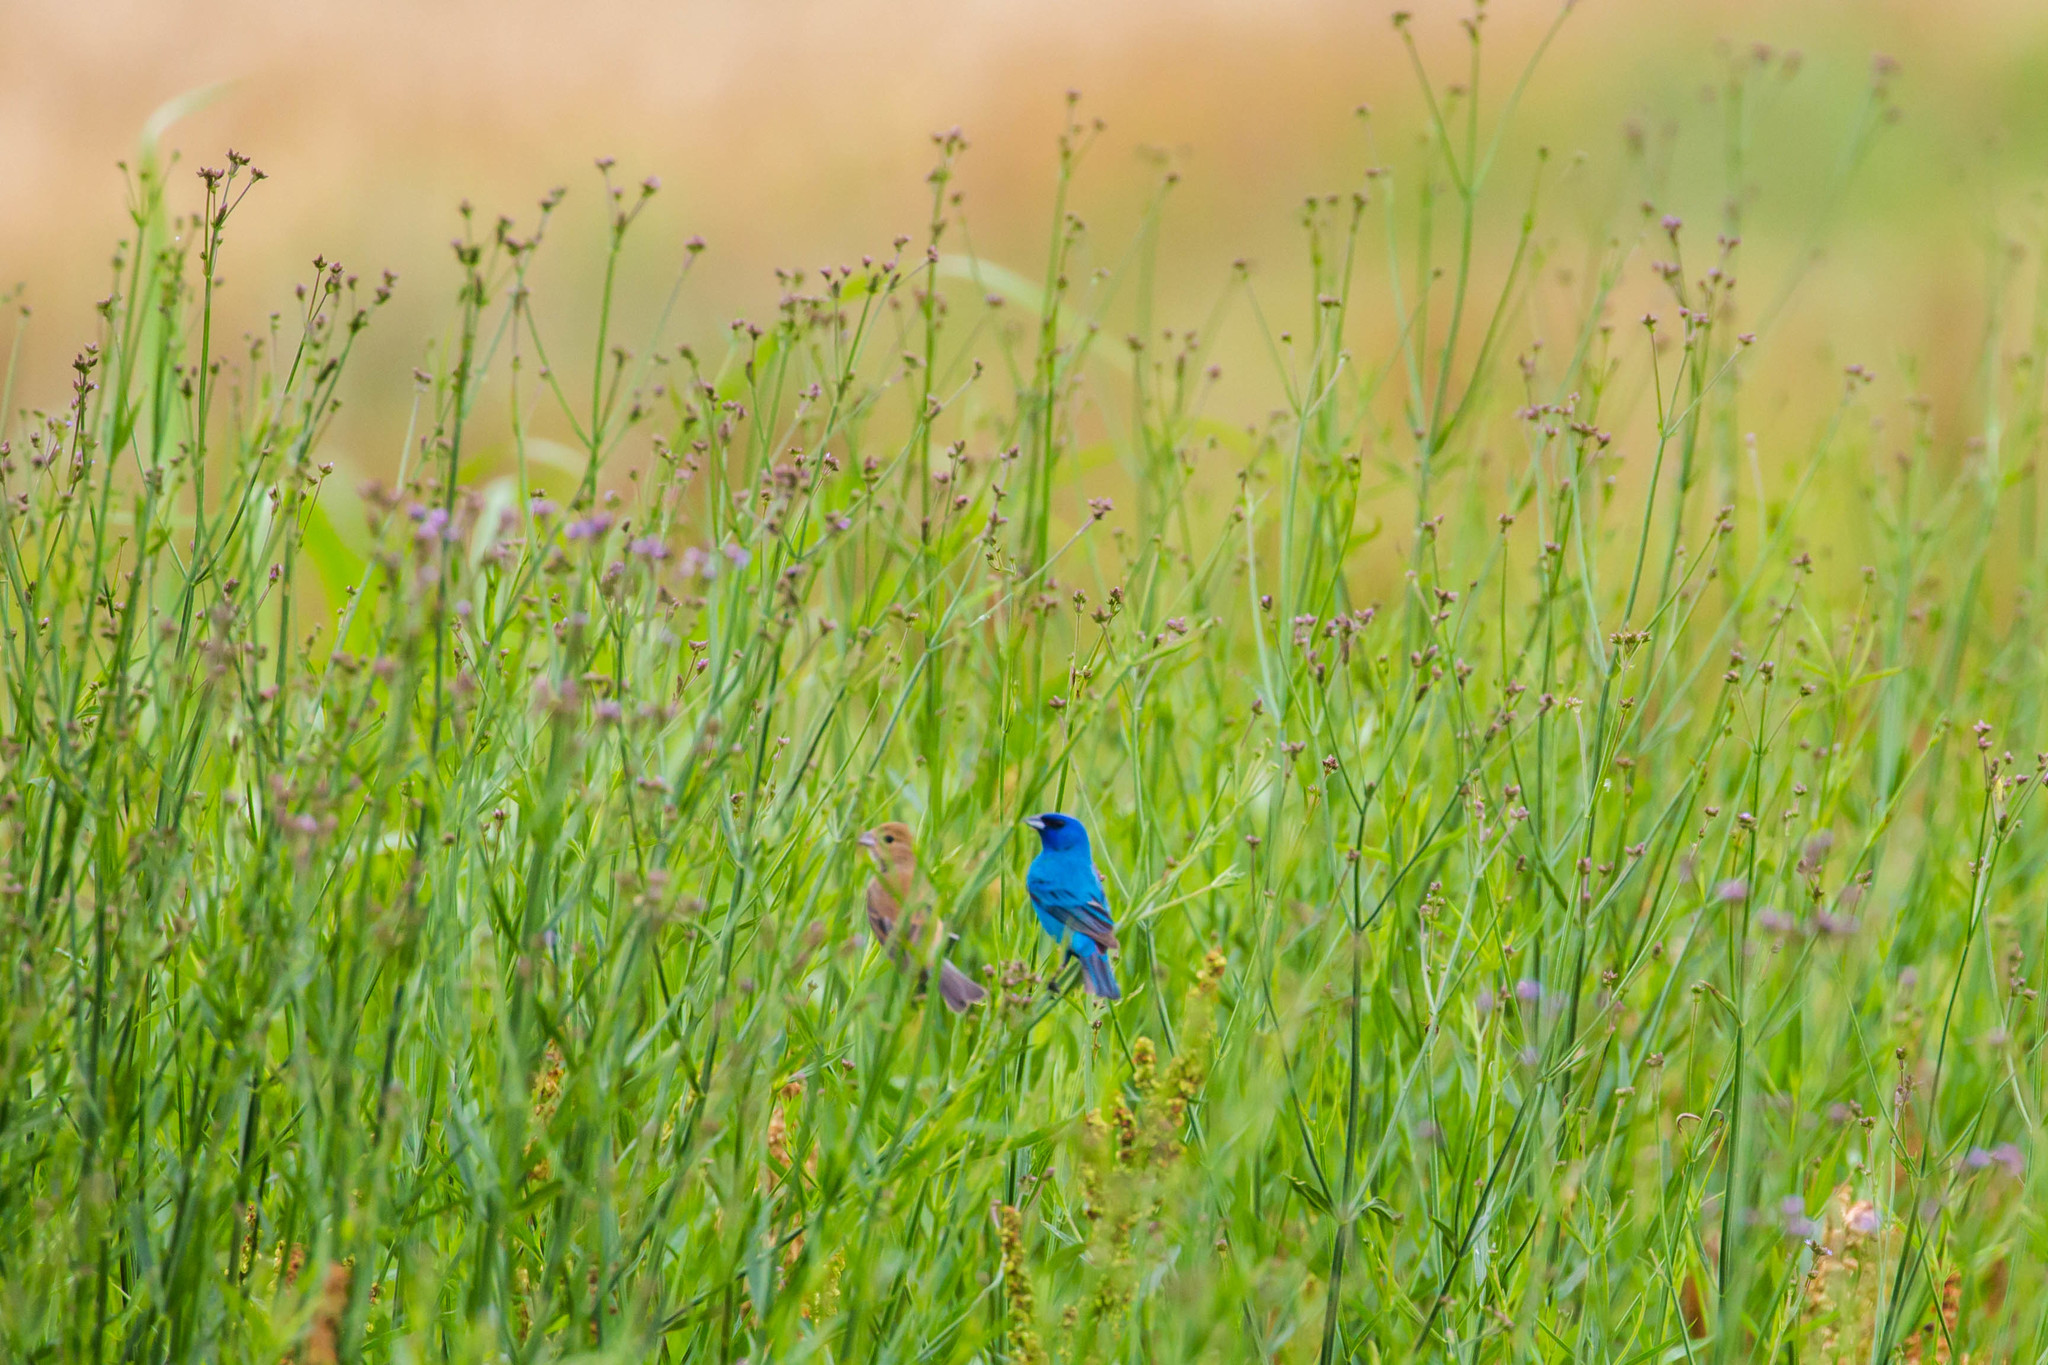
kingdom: Animalia
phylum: Chordata
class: Aves
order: Passeriformes
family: Cardinalidae
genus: Passerina
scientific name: Passerina cyanea
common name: Indigo bunting
